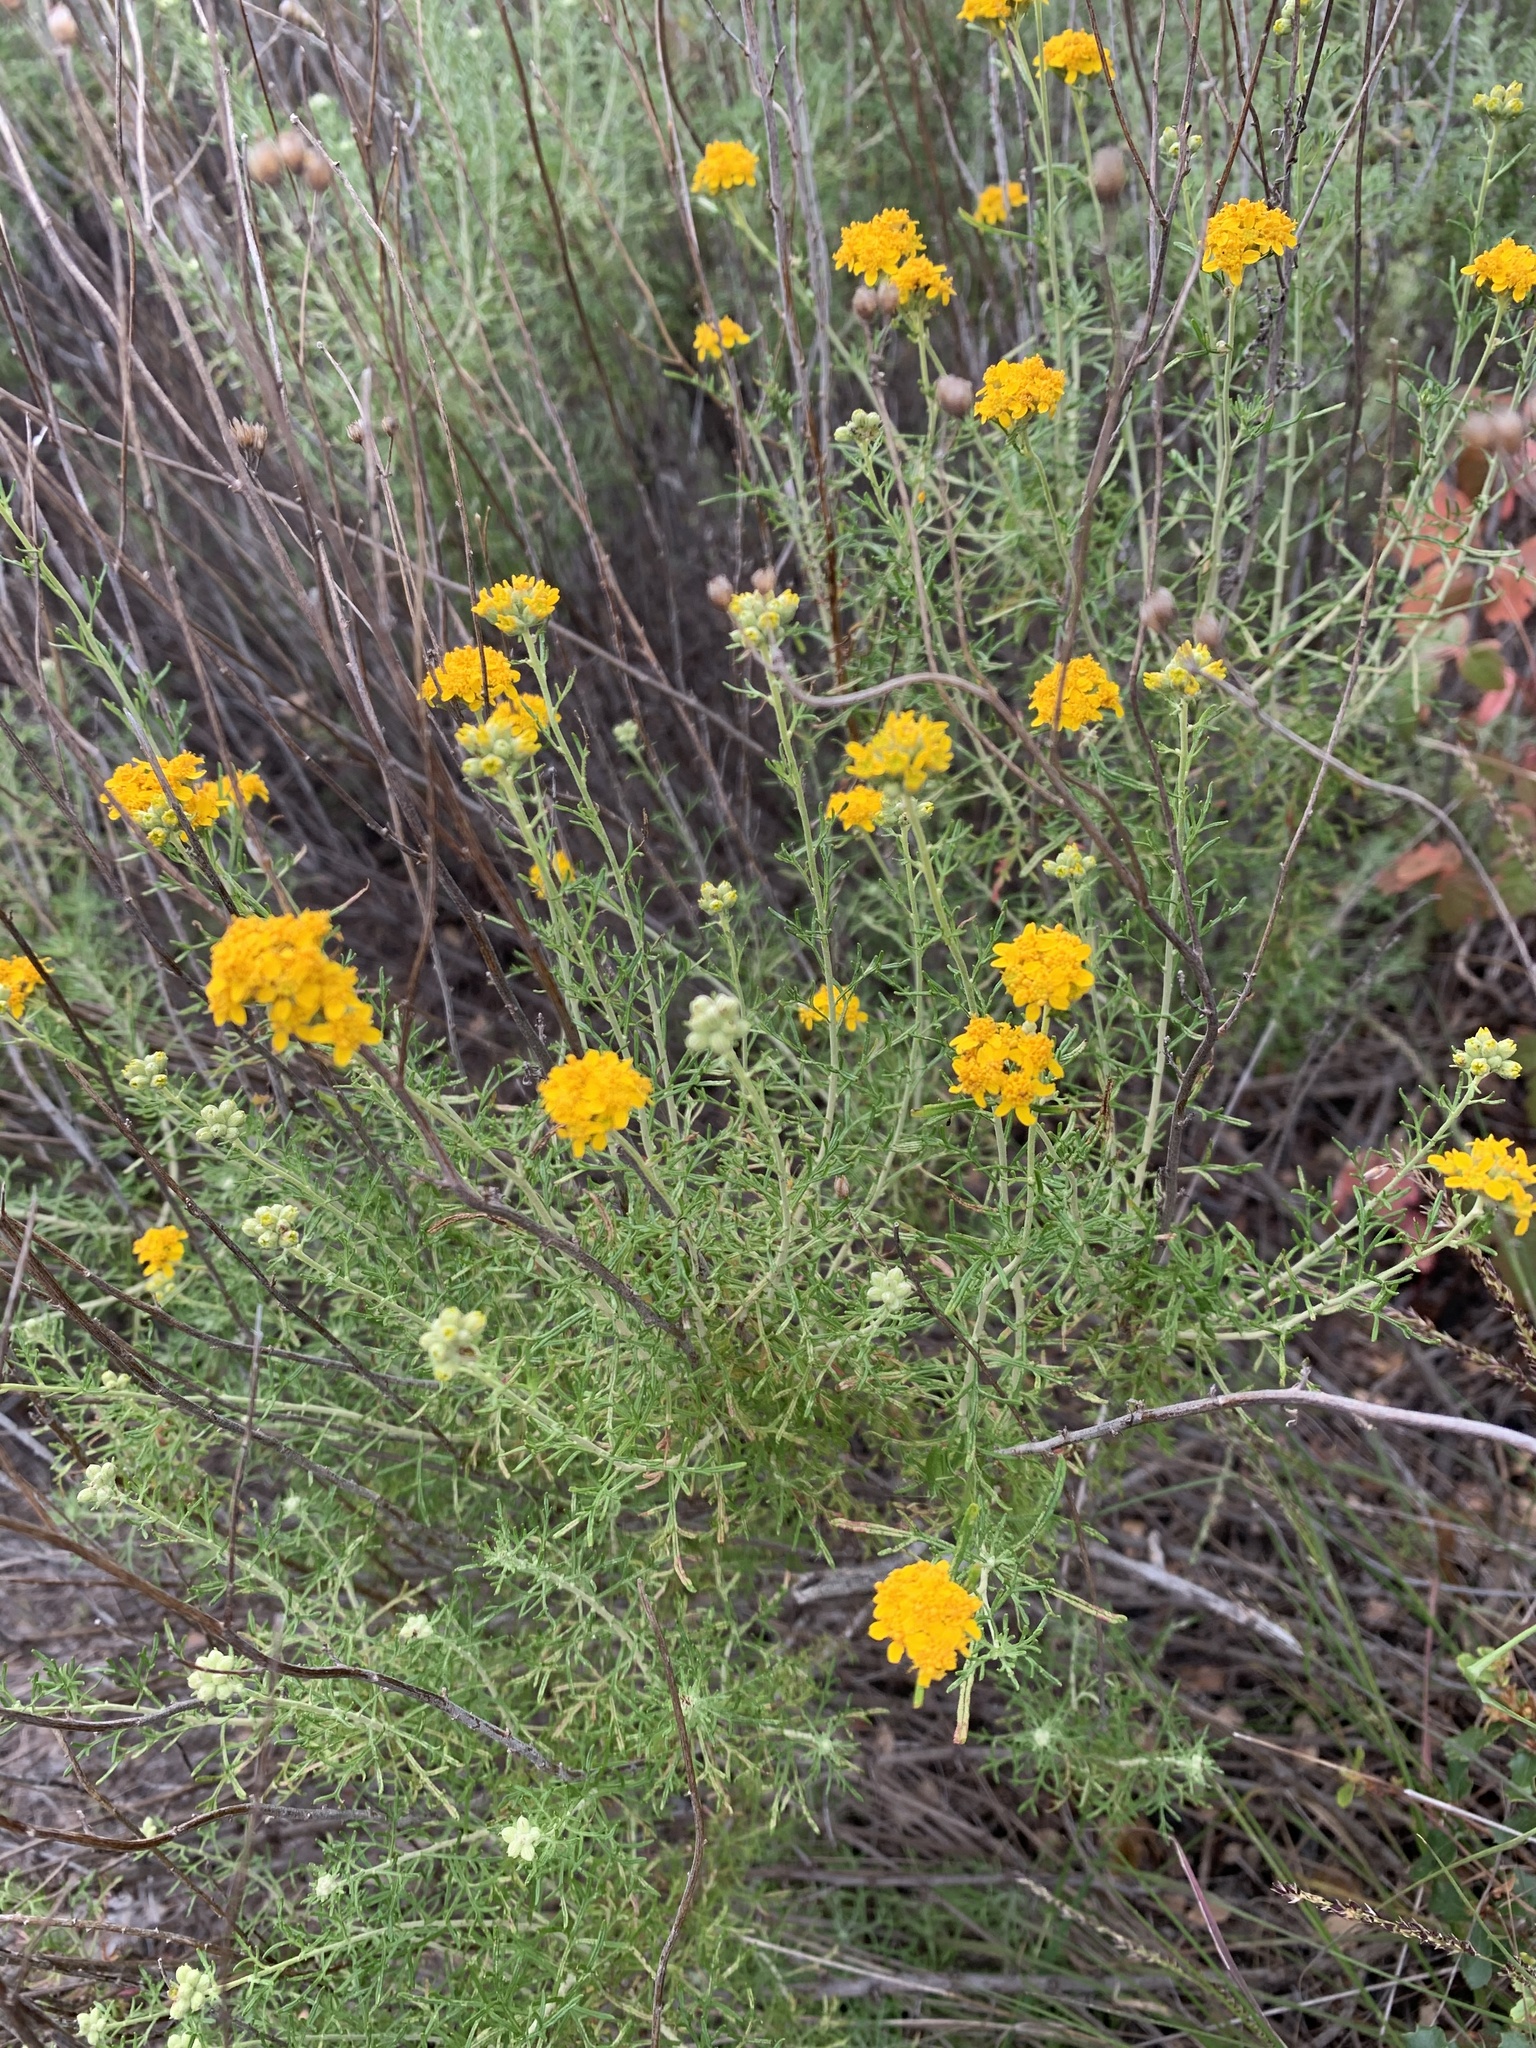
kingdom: Plantae
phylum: Tracheophyta
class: Magnoliopsida
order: Asterales
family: Asteraceae
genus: Eriophyllum
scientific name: Eriophyllum confertiflorum
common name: Golden-yarrow
